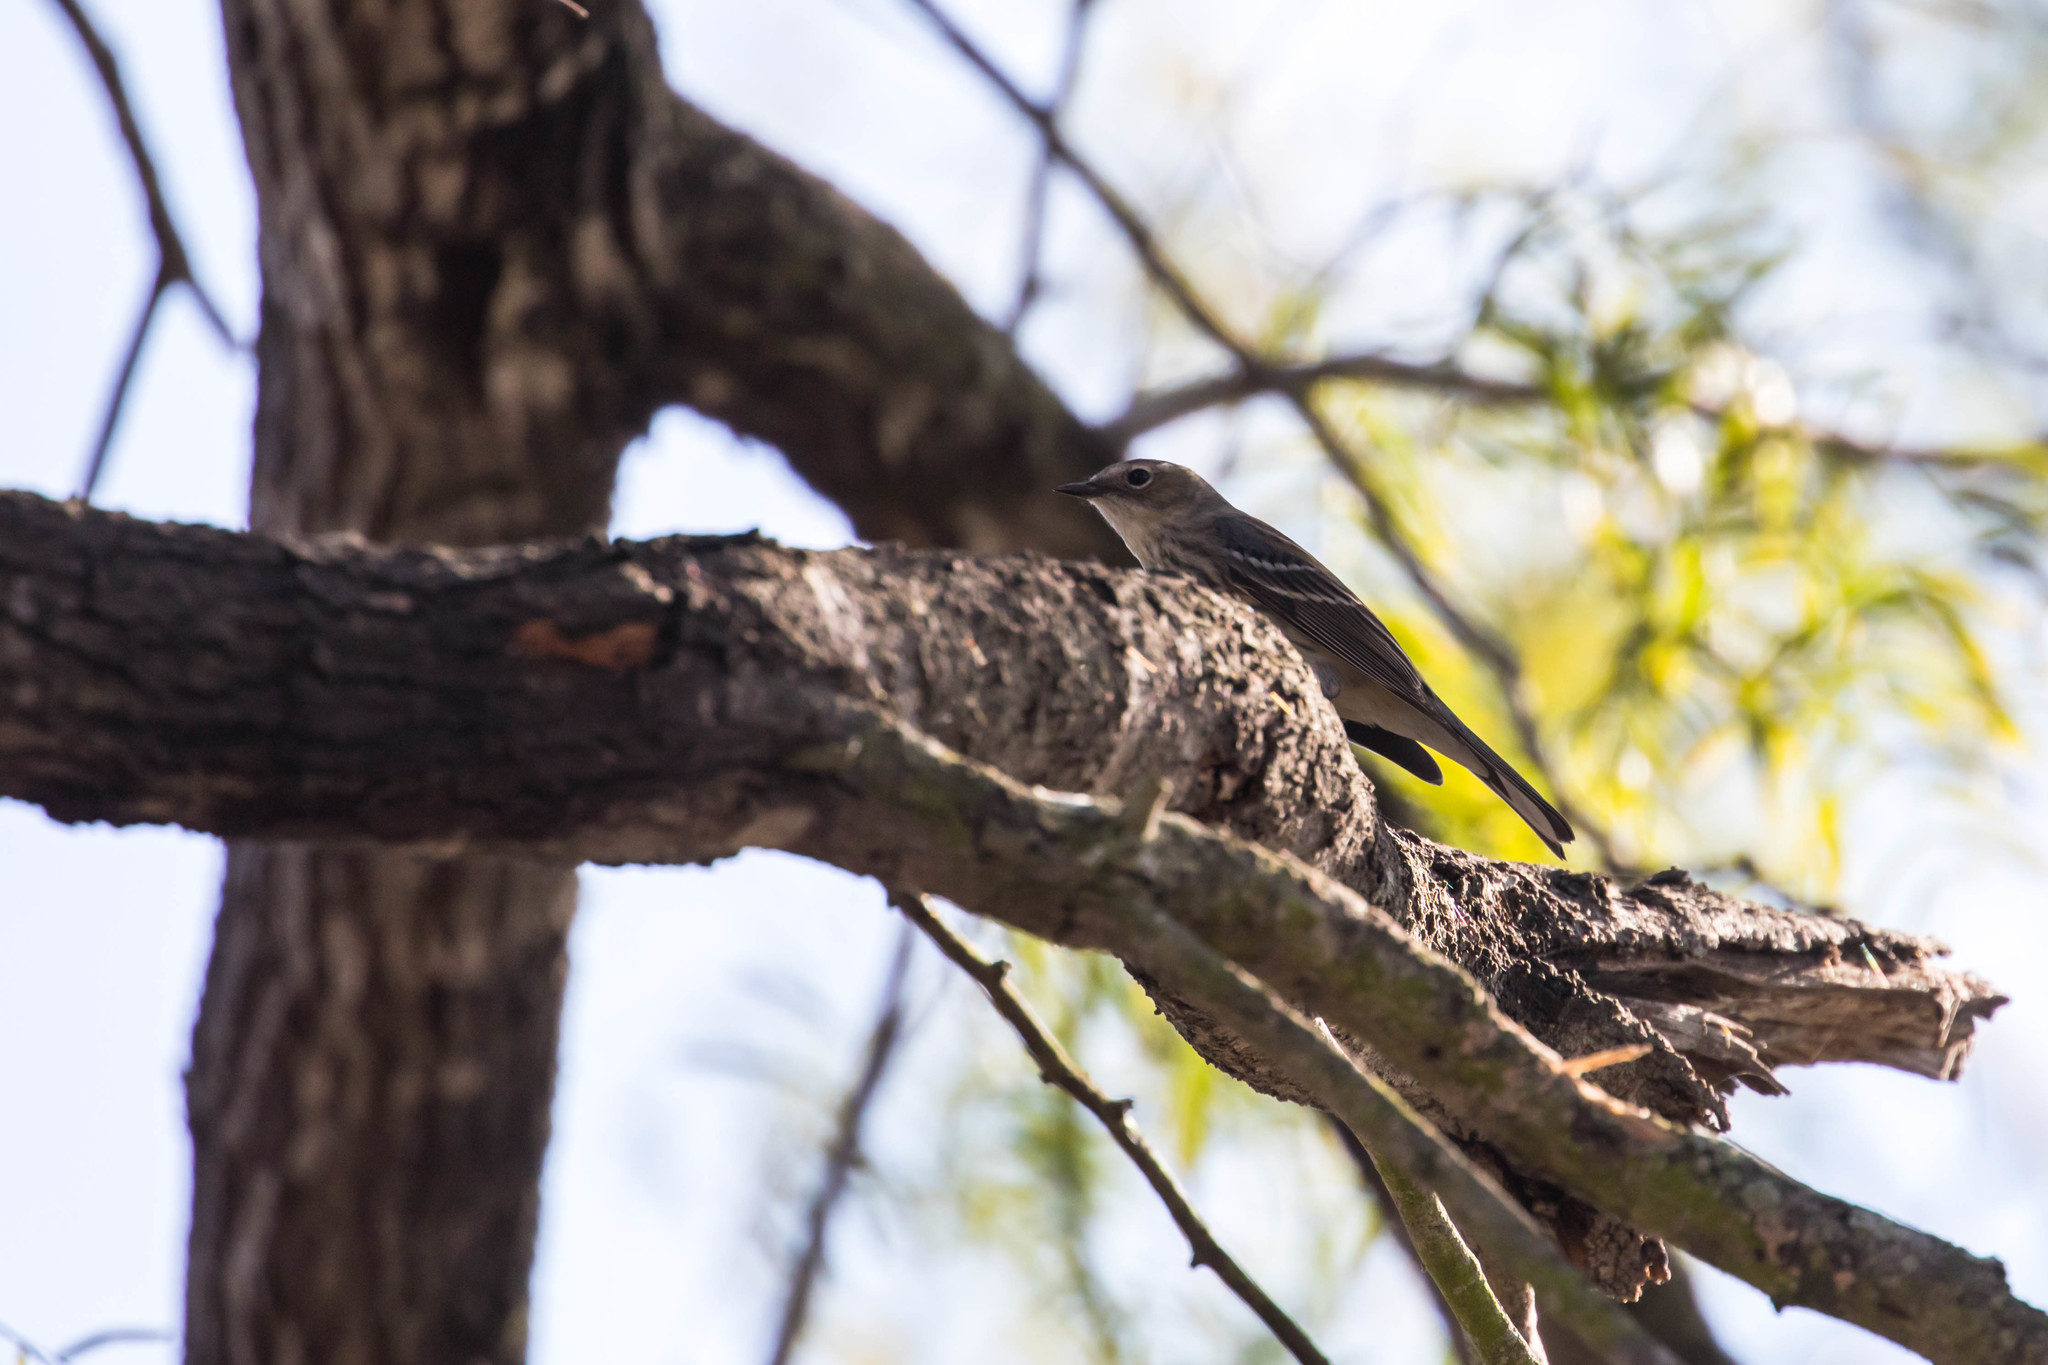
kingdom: Animalia
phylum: Chordata
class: Aves
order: Passeriformes
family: Parulidae
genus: Setophaga
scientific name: Setophaga coronata
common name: Myrtle warbler
